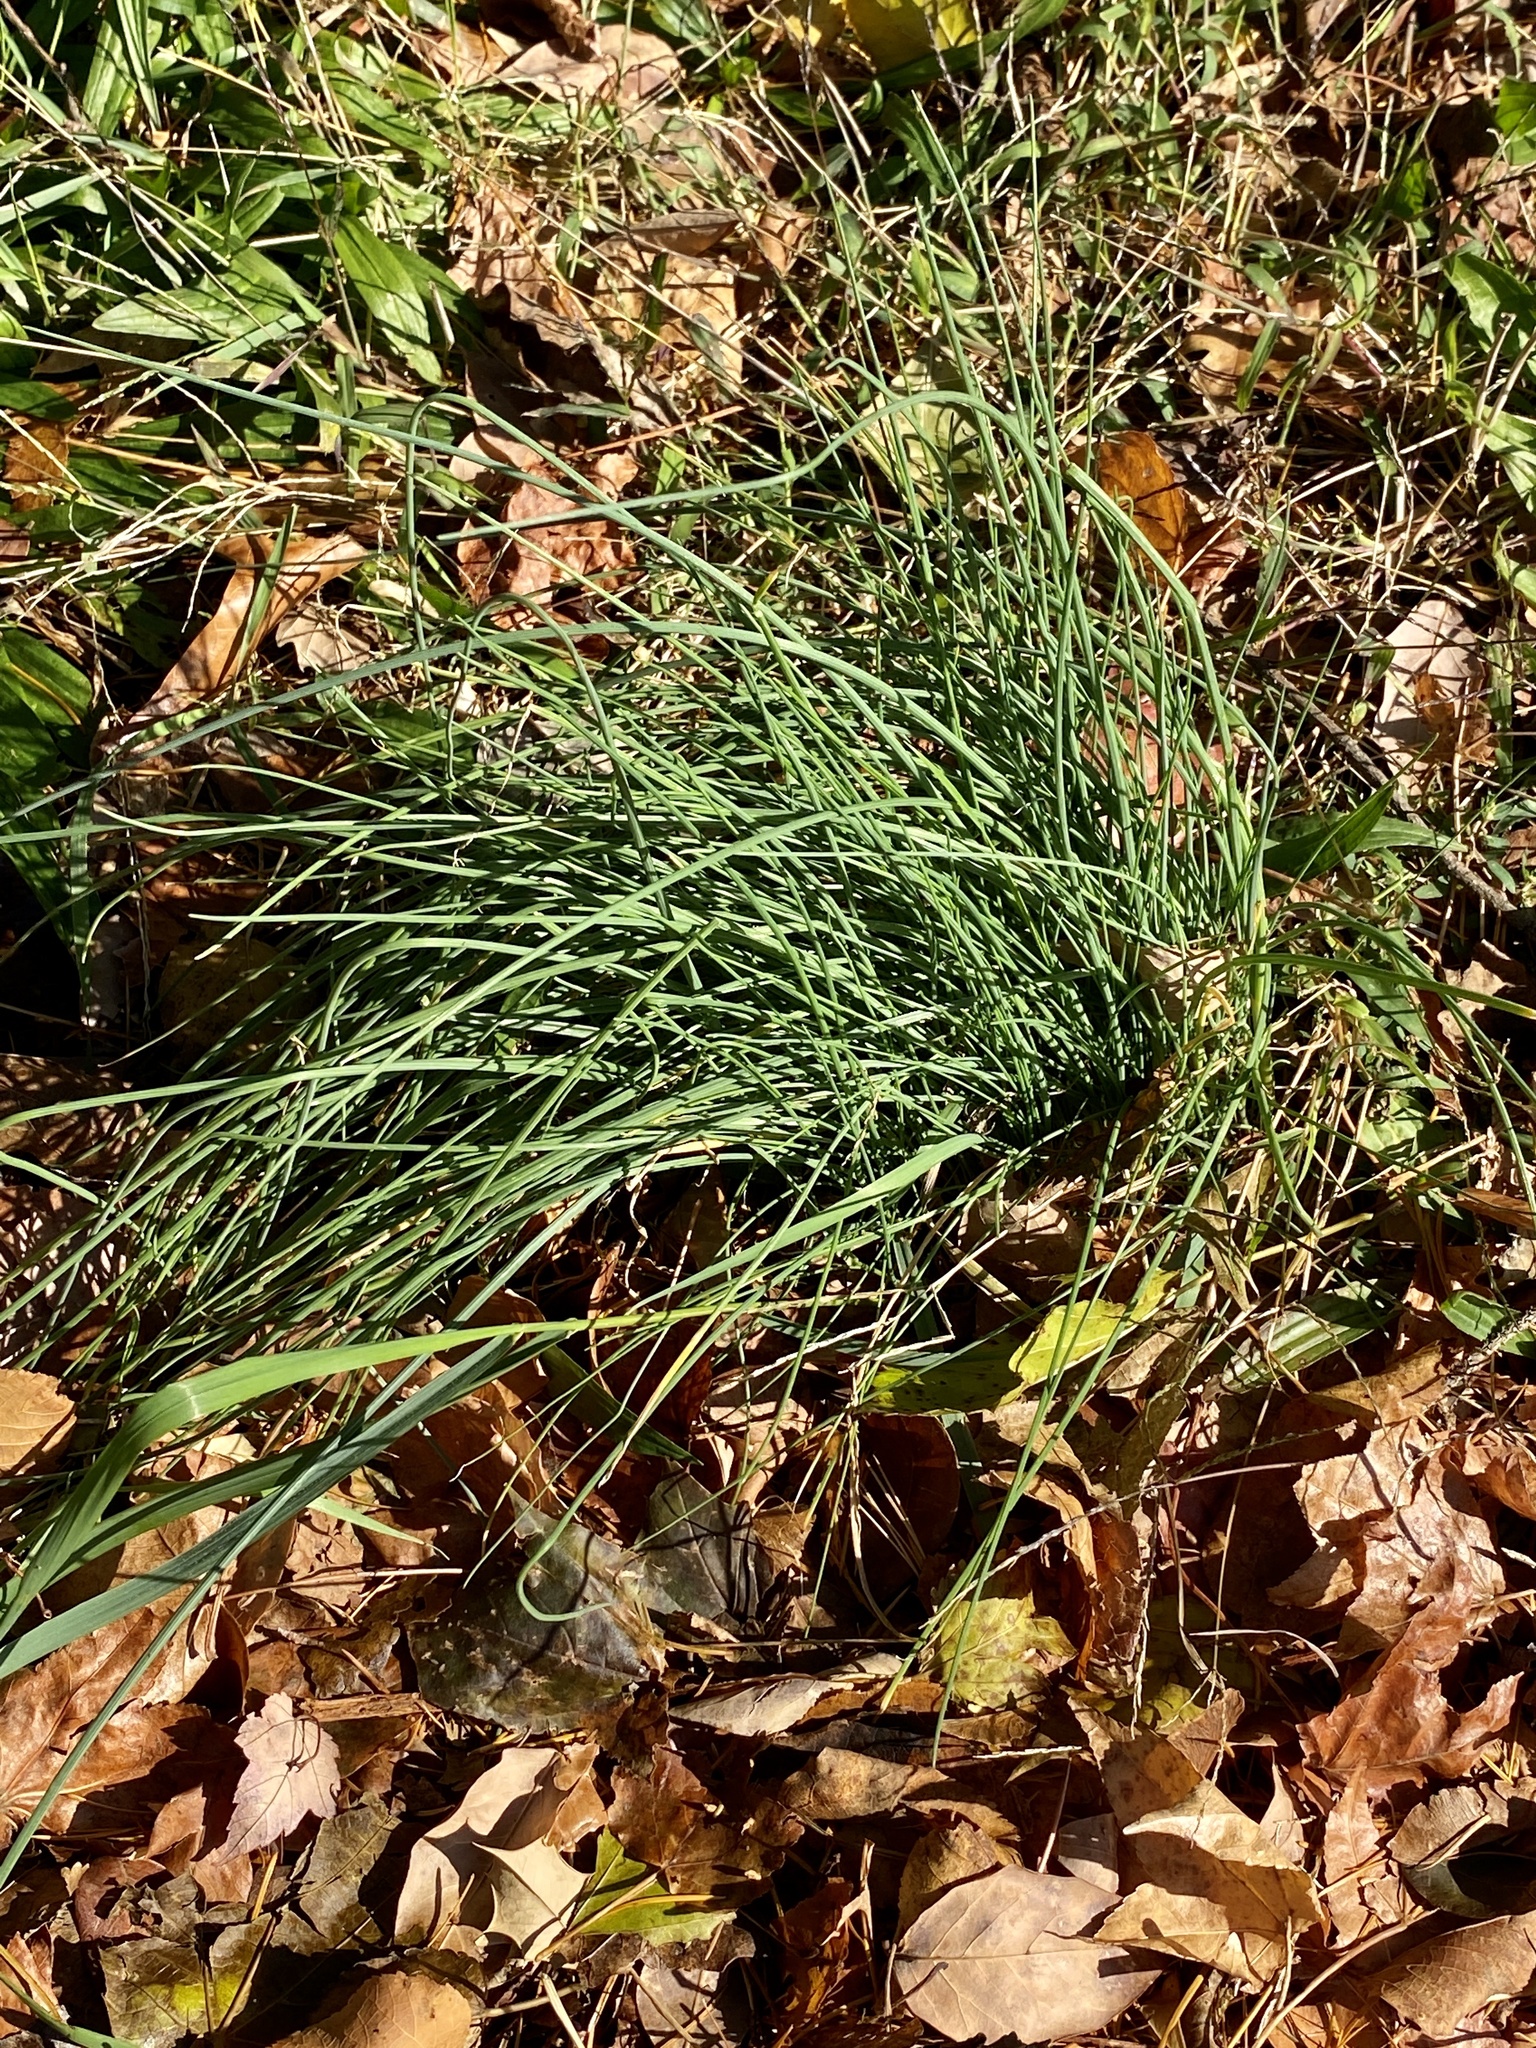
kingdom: Plantae
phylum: Tracheophyta
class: Liliopsida
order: Asparagales
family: Amaryllidaceae
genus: Allium
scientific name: Allium vineale
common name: Crow garlic
